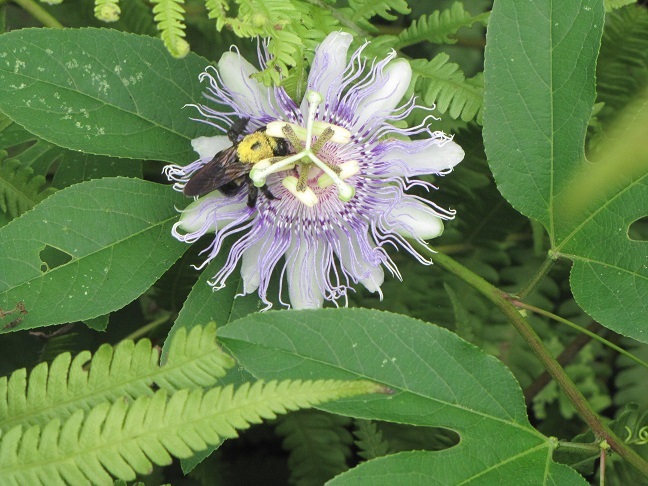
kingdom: Plantae
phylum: Tracheophyta
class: Magnoliopsida
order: Malpighiales
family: Passifloraceae
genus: Passiflora
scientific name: Passiflora incarnata
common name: Apricot-vine
